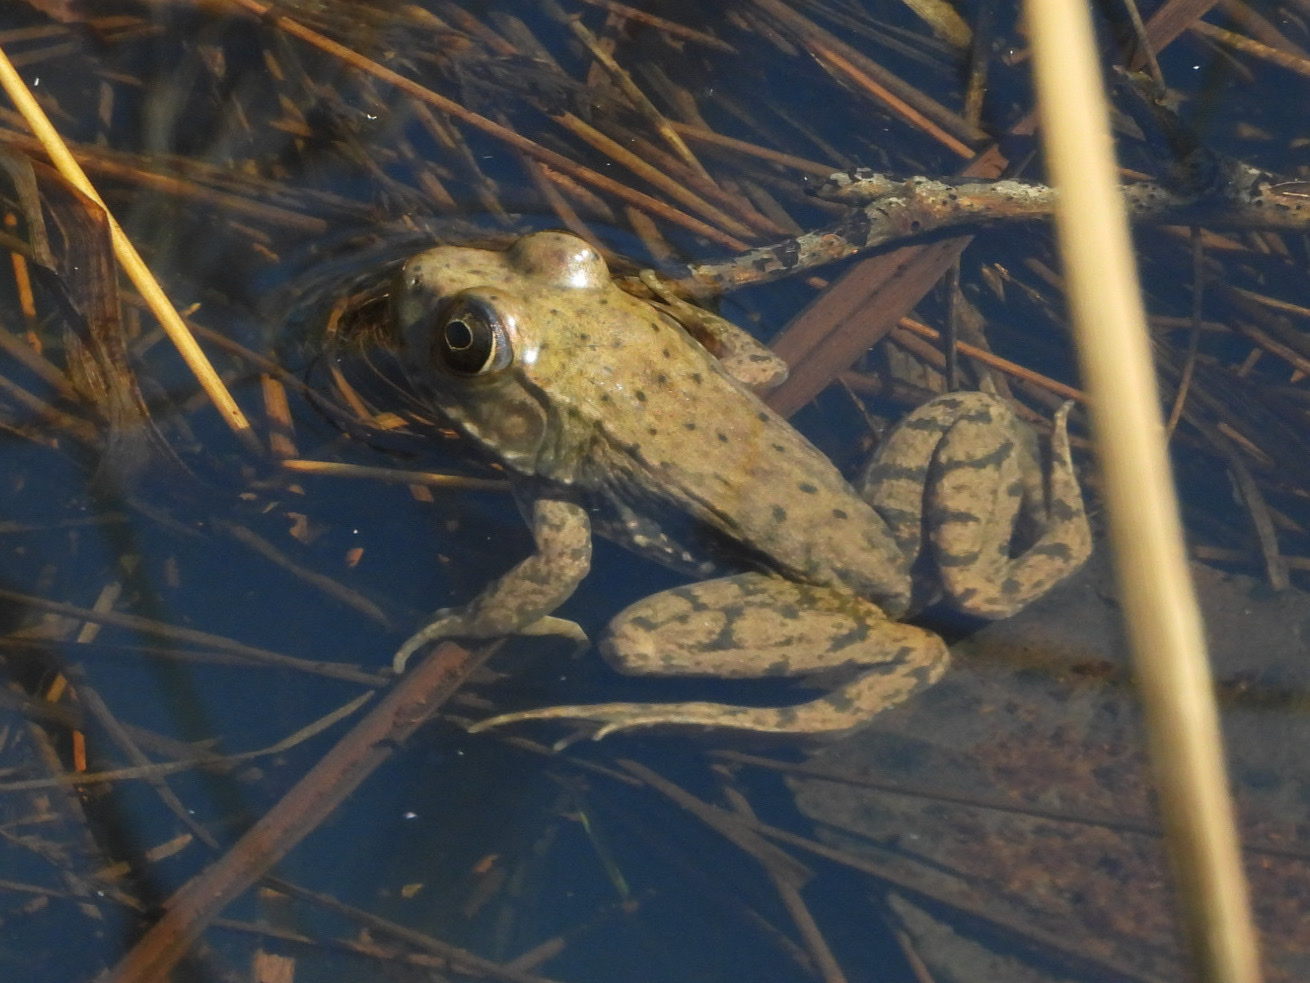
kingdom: Animalia
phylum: Chordata
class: Amphibia
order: Anura
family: Ranidae
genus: Lithobates
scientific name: Lithobates clamitans
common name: Green frog
